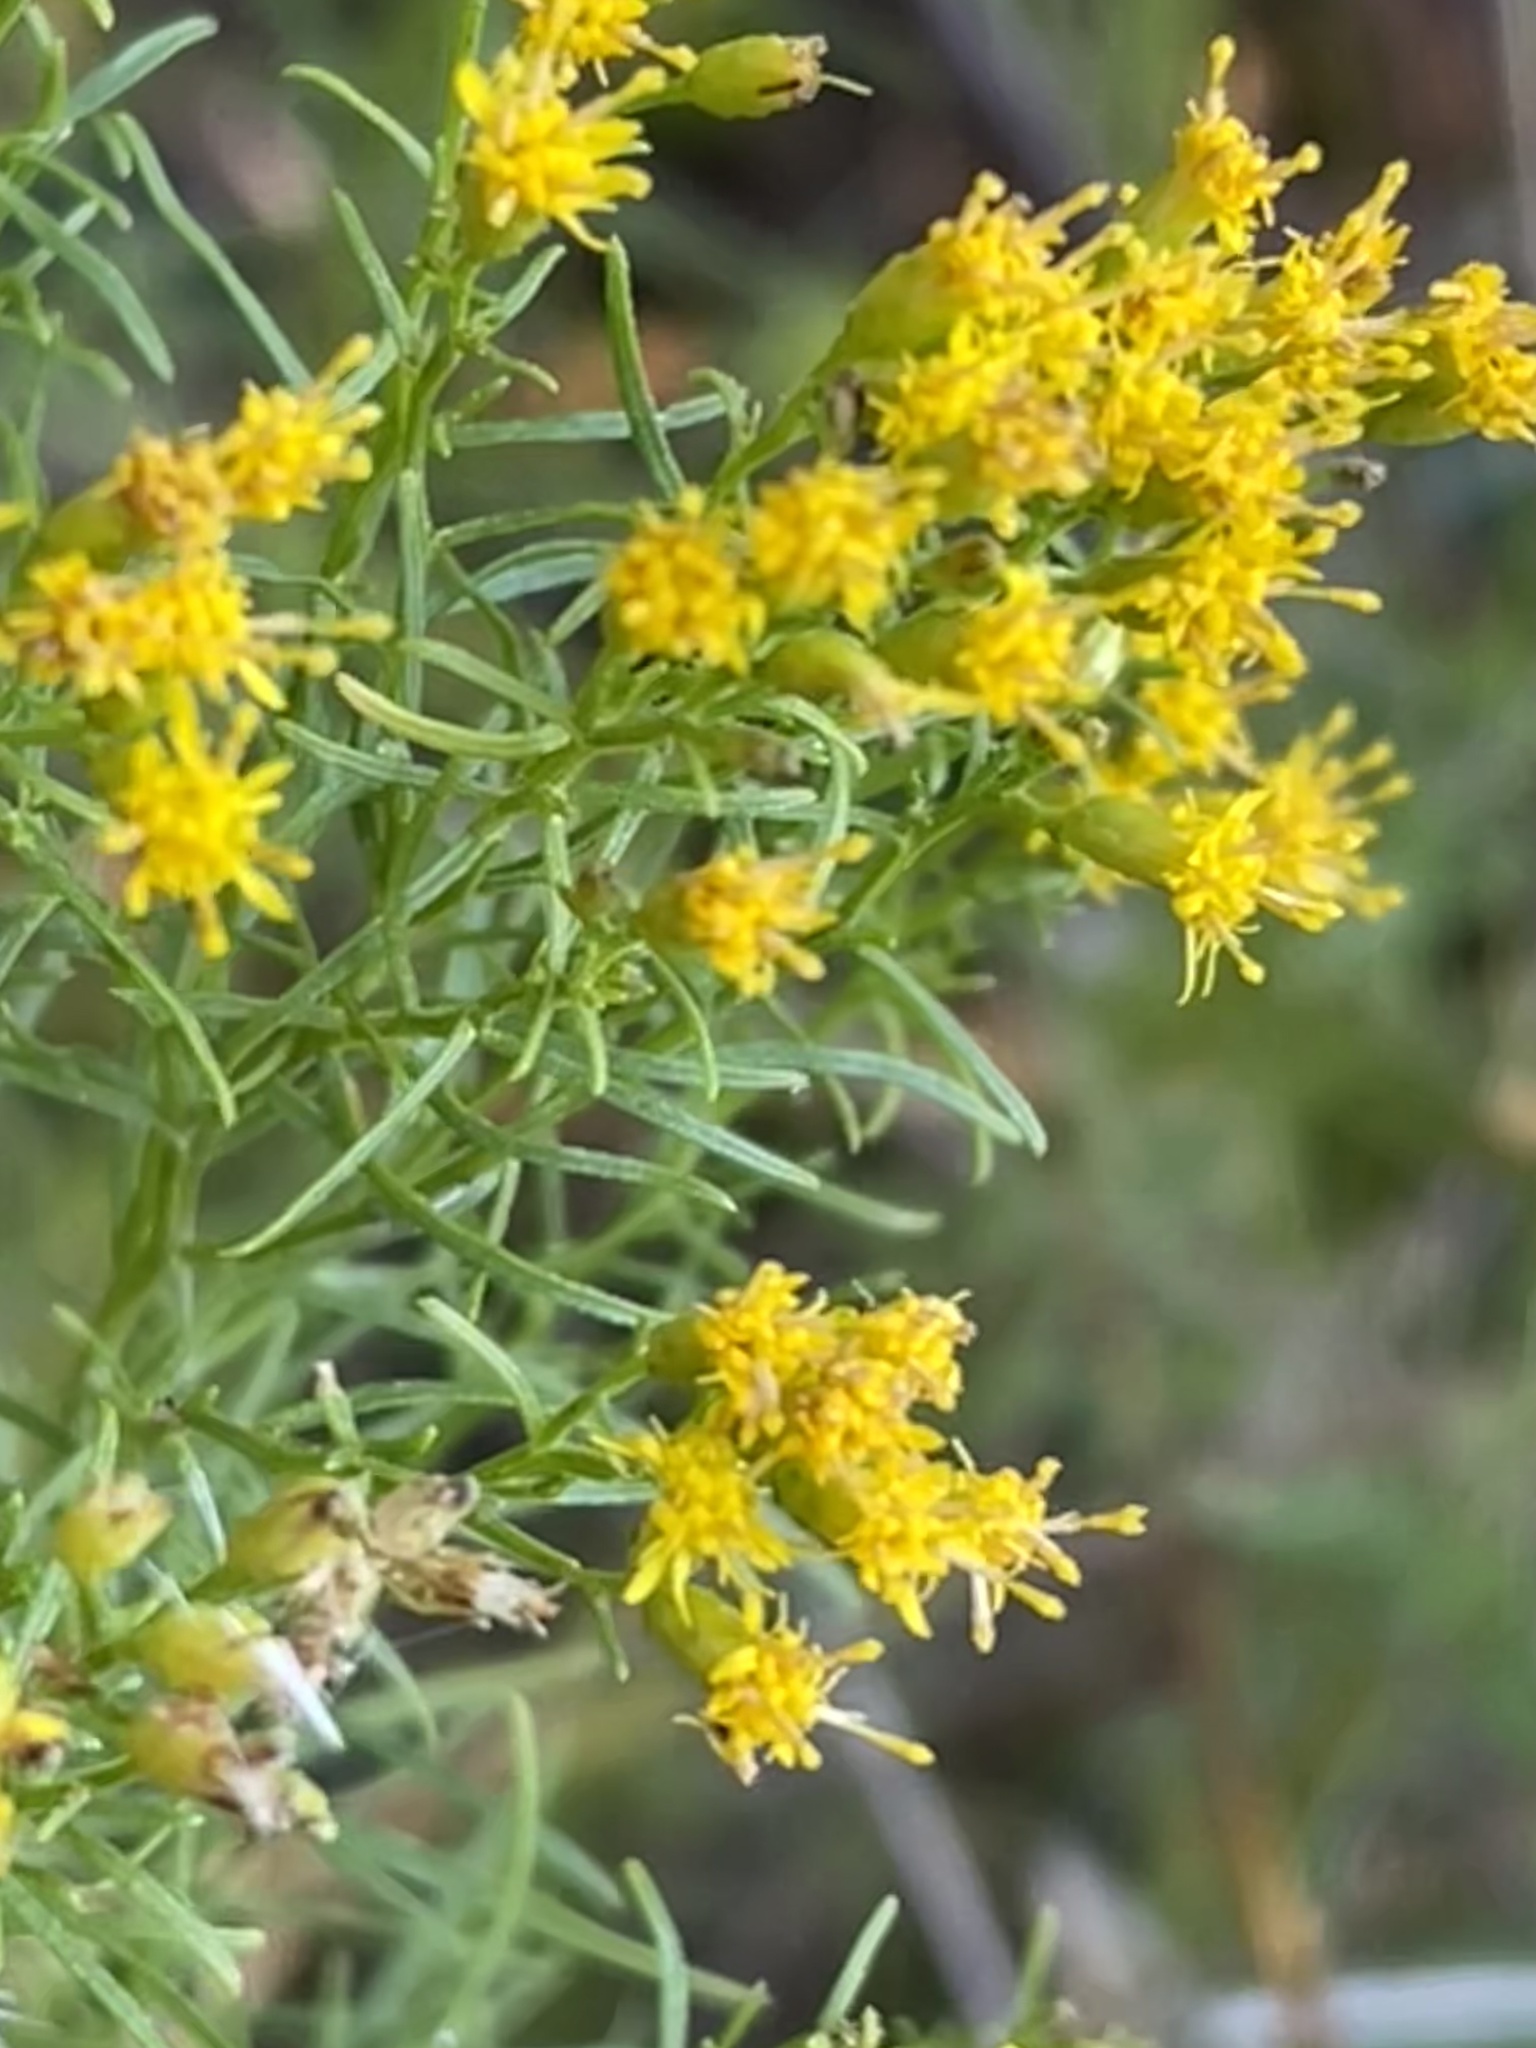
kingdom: Plantae
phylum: Tracheophyta
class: Magnoliopsida
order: Asterales
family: Asteraceae
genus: Euthamia
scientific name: Euthamia caroliniana
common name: Coastal plain goldentop
